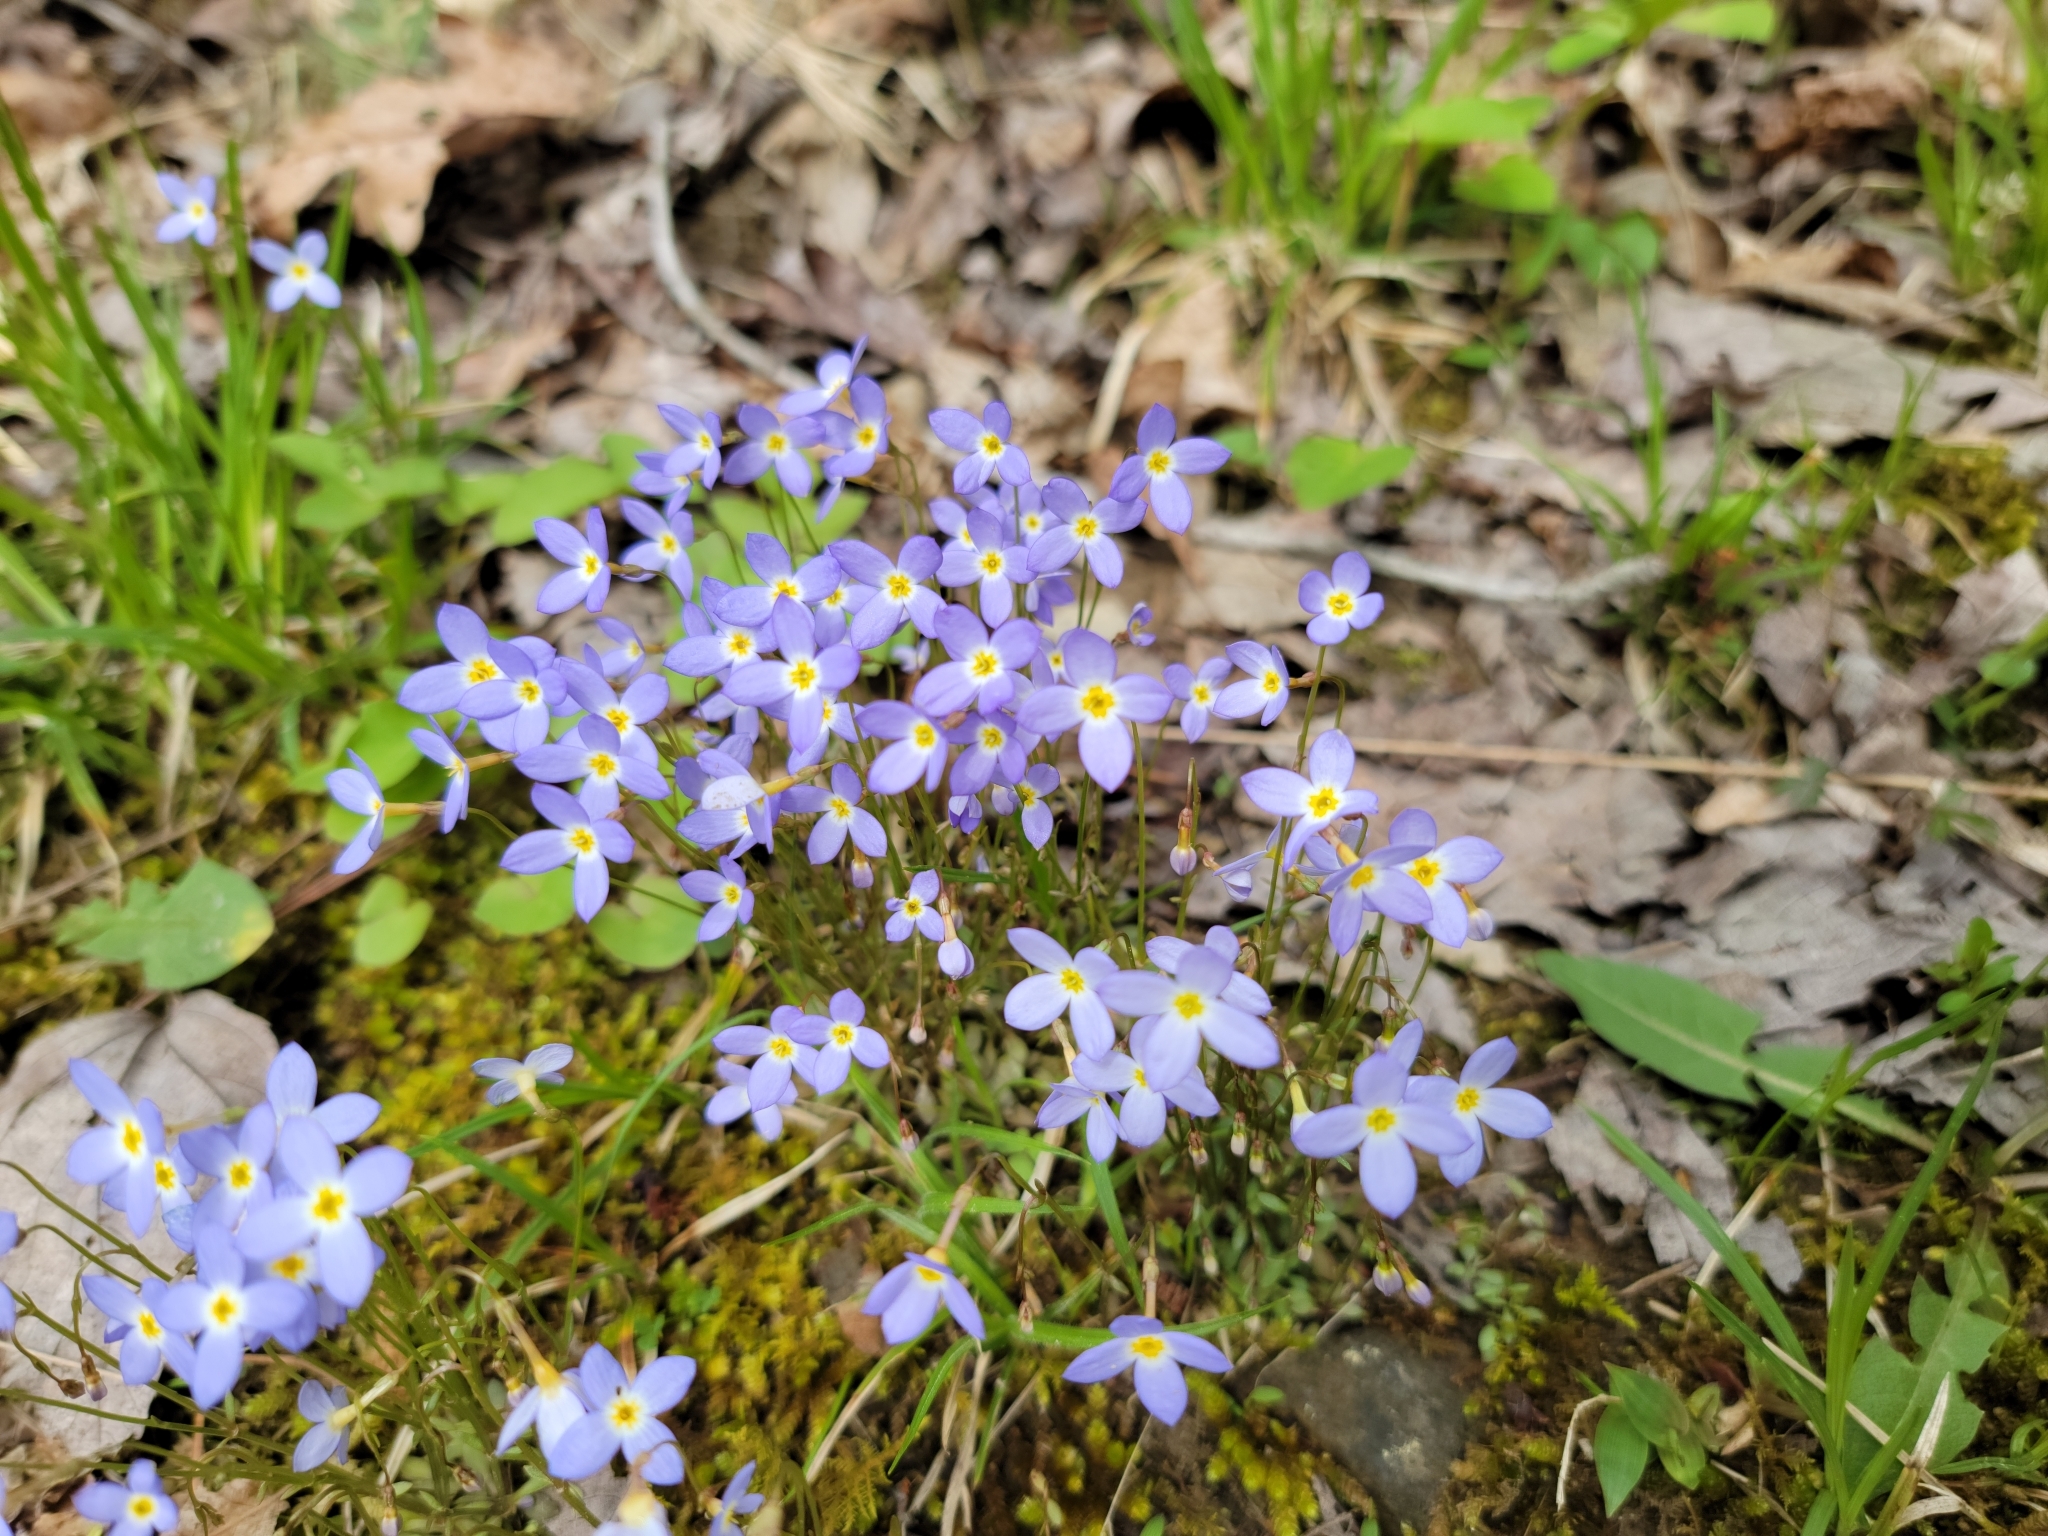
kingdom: Plantae
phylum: Tracheophyta
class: Magnoliopsida
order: Gentianales
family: Rubiaceae
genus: Houstonia
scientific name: Houstonia caerulea
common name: Bluets
